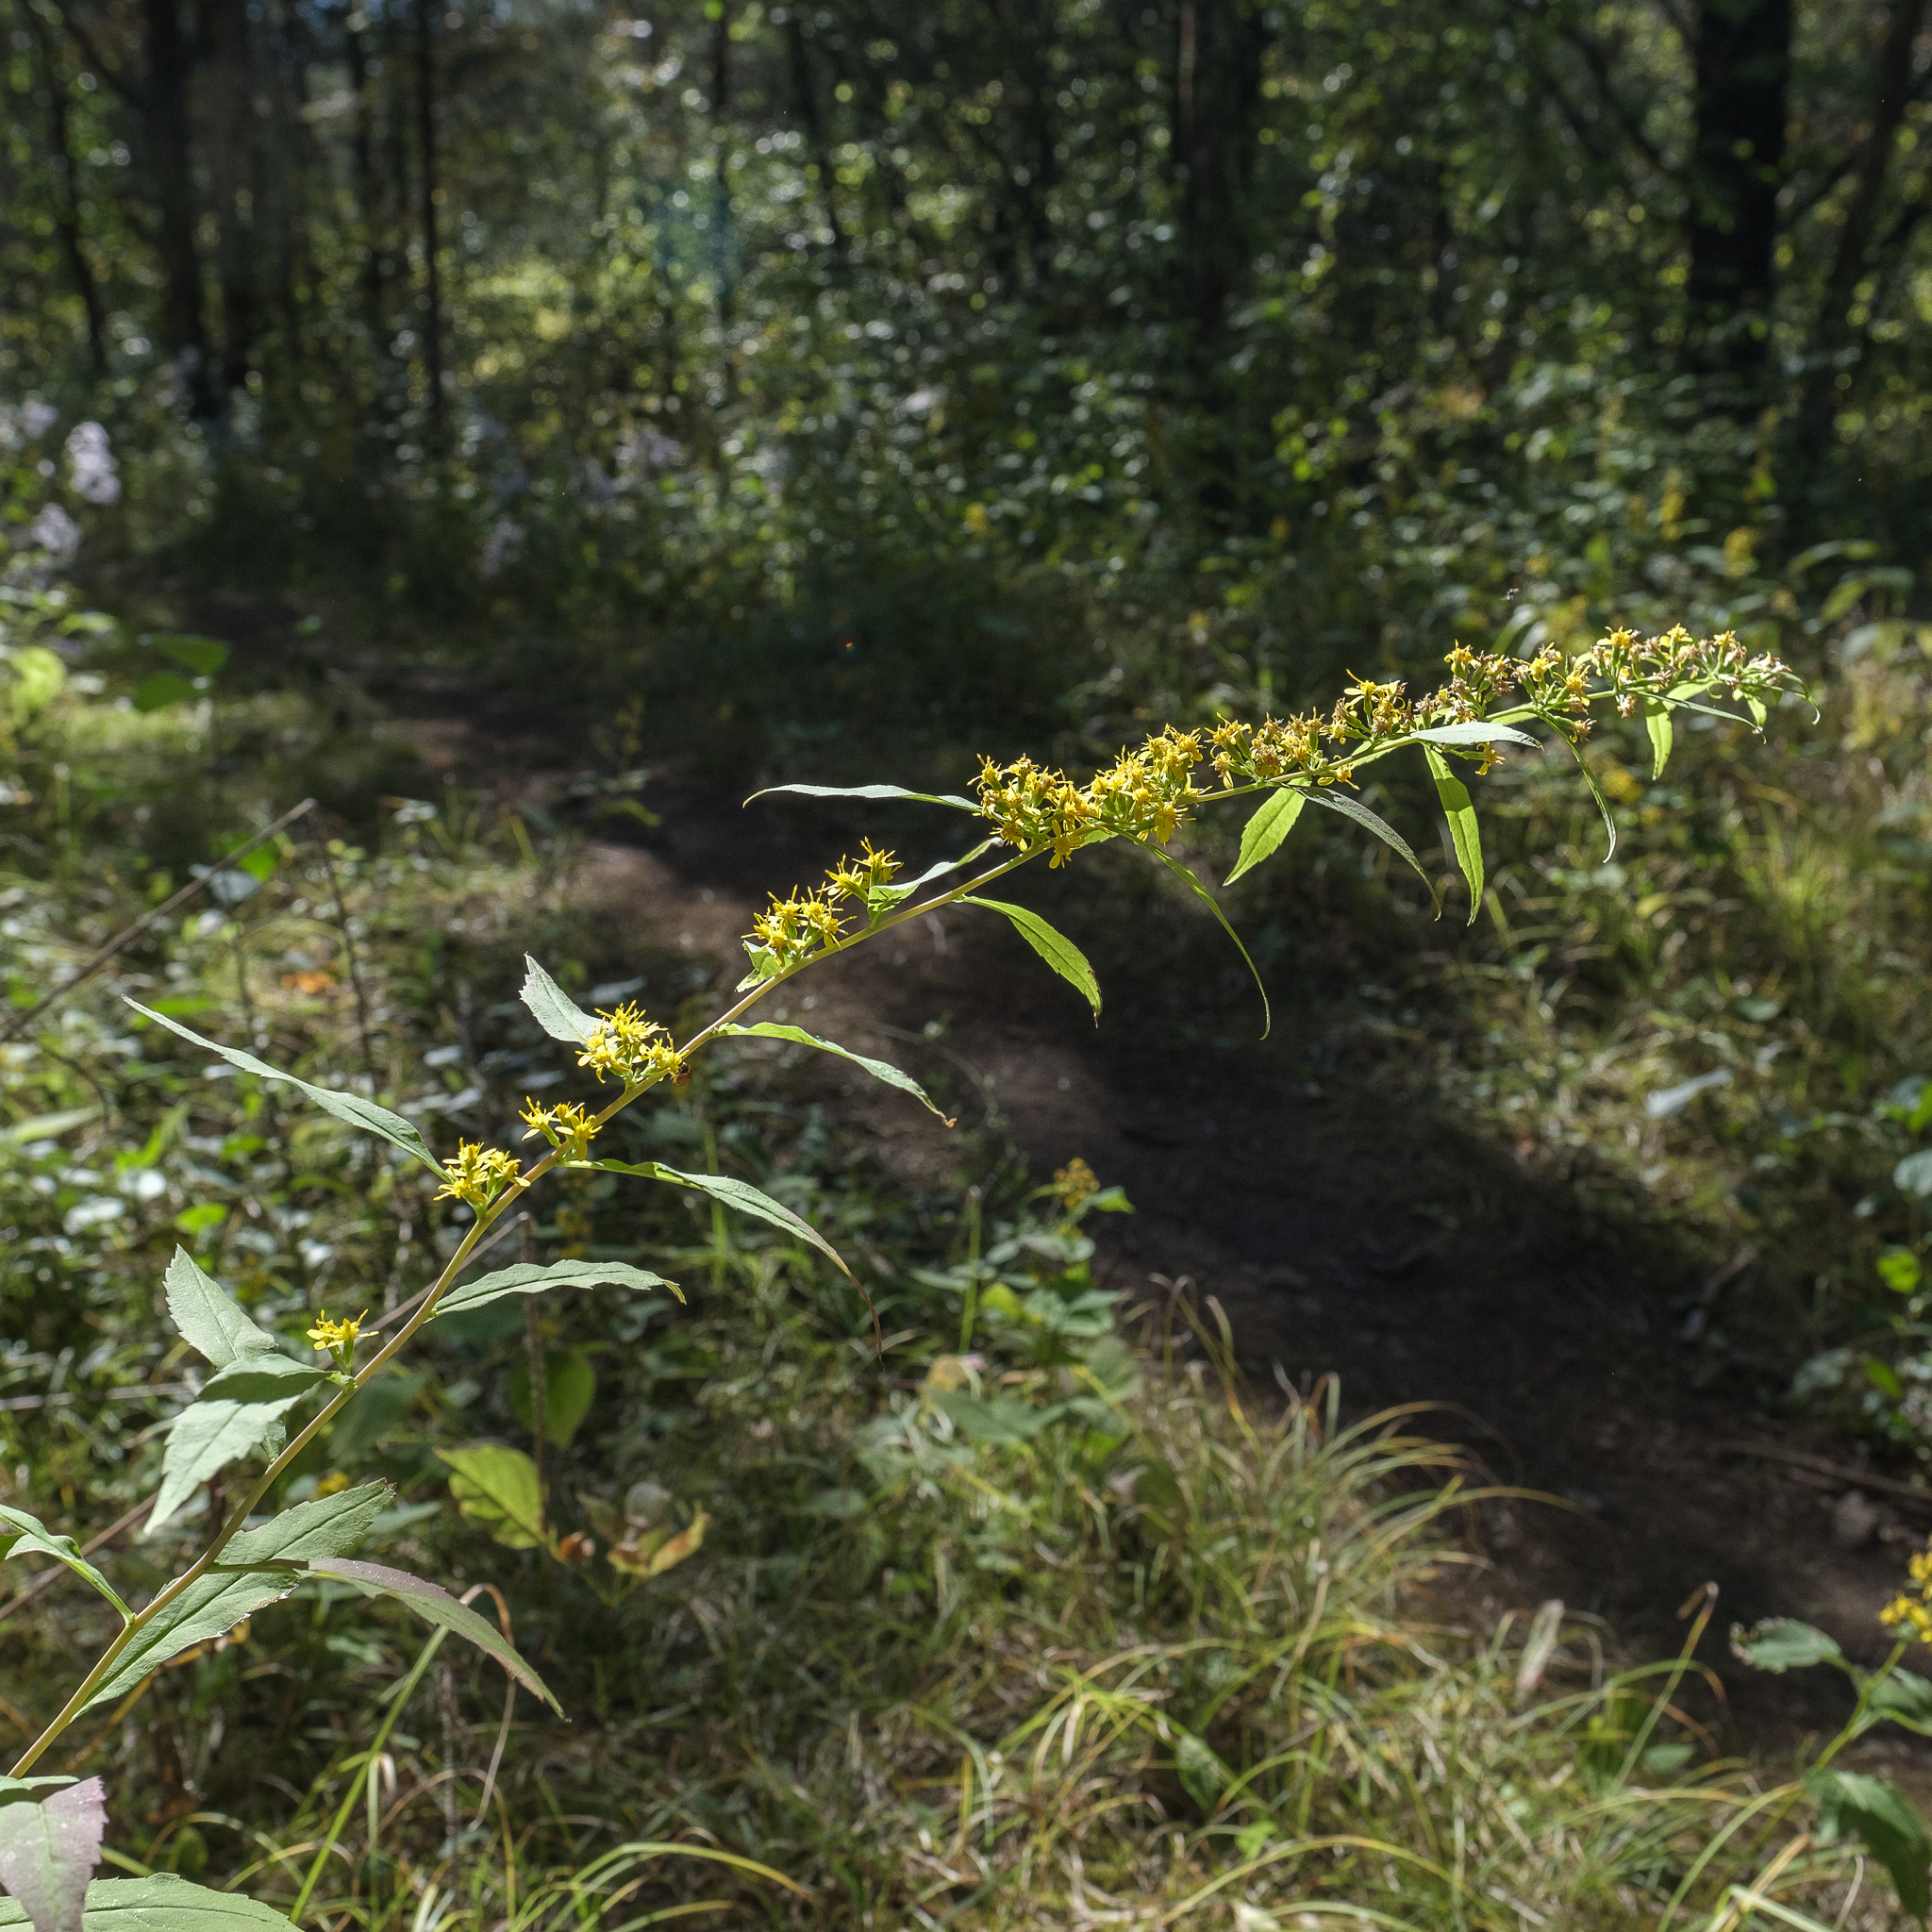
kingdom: Plantae
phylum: Tracheophyta
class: Magnoliopsida
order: Asterales
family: Asteraceae
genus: Solidago
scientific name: Solidago caesia
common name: Woodland goldenrod
